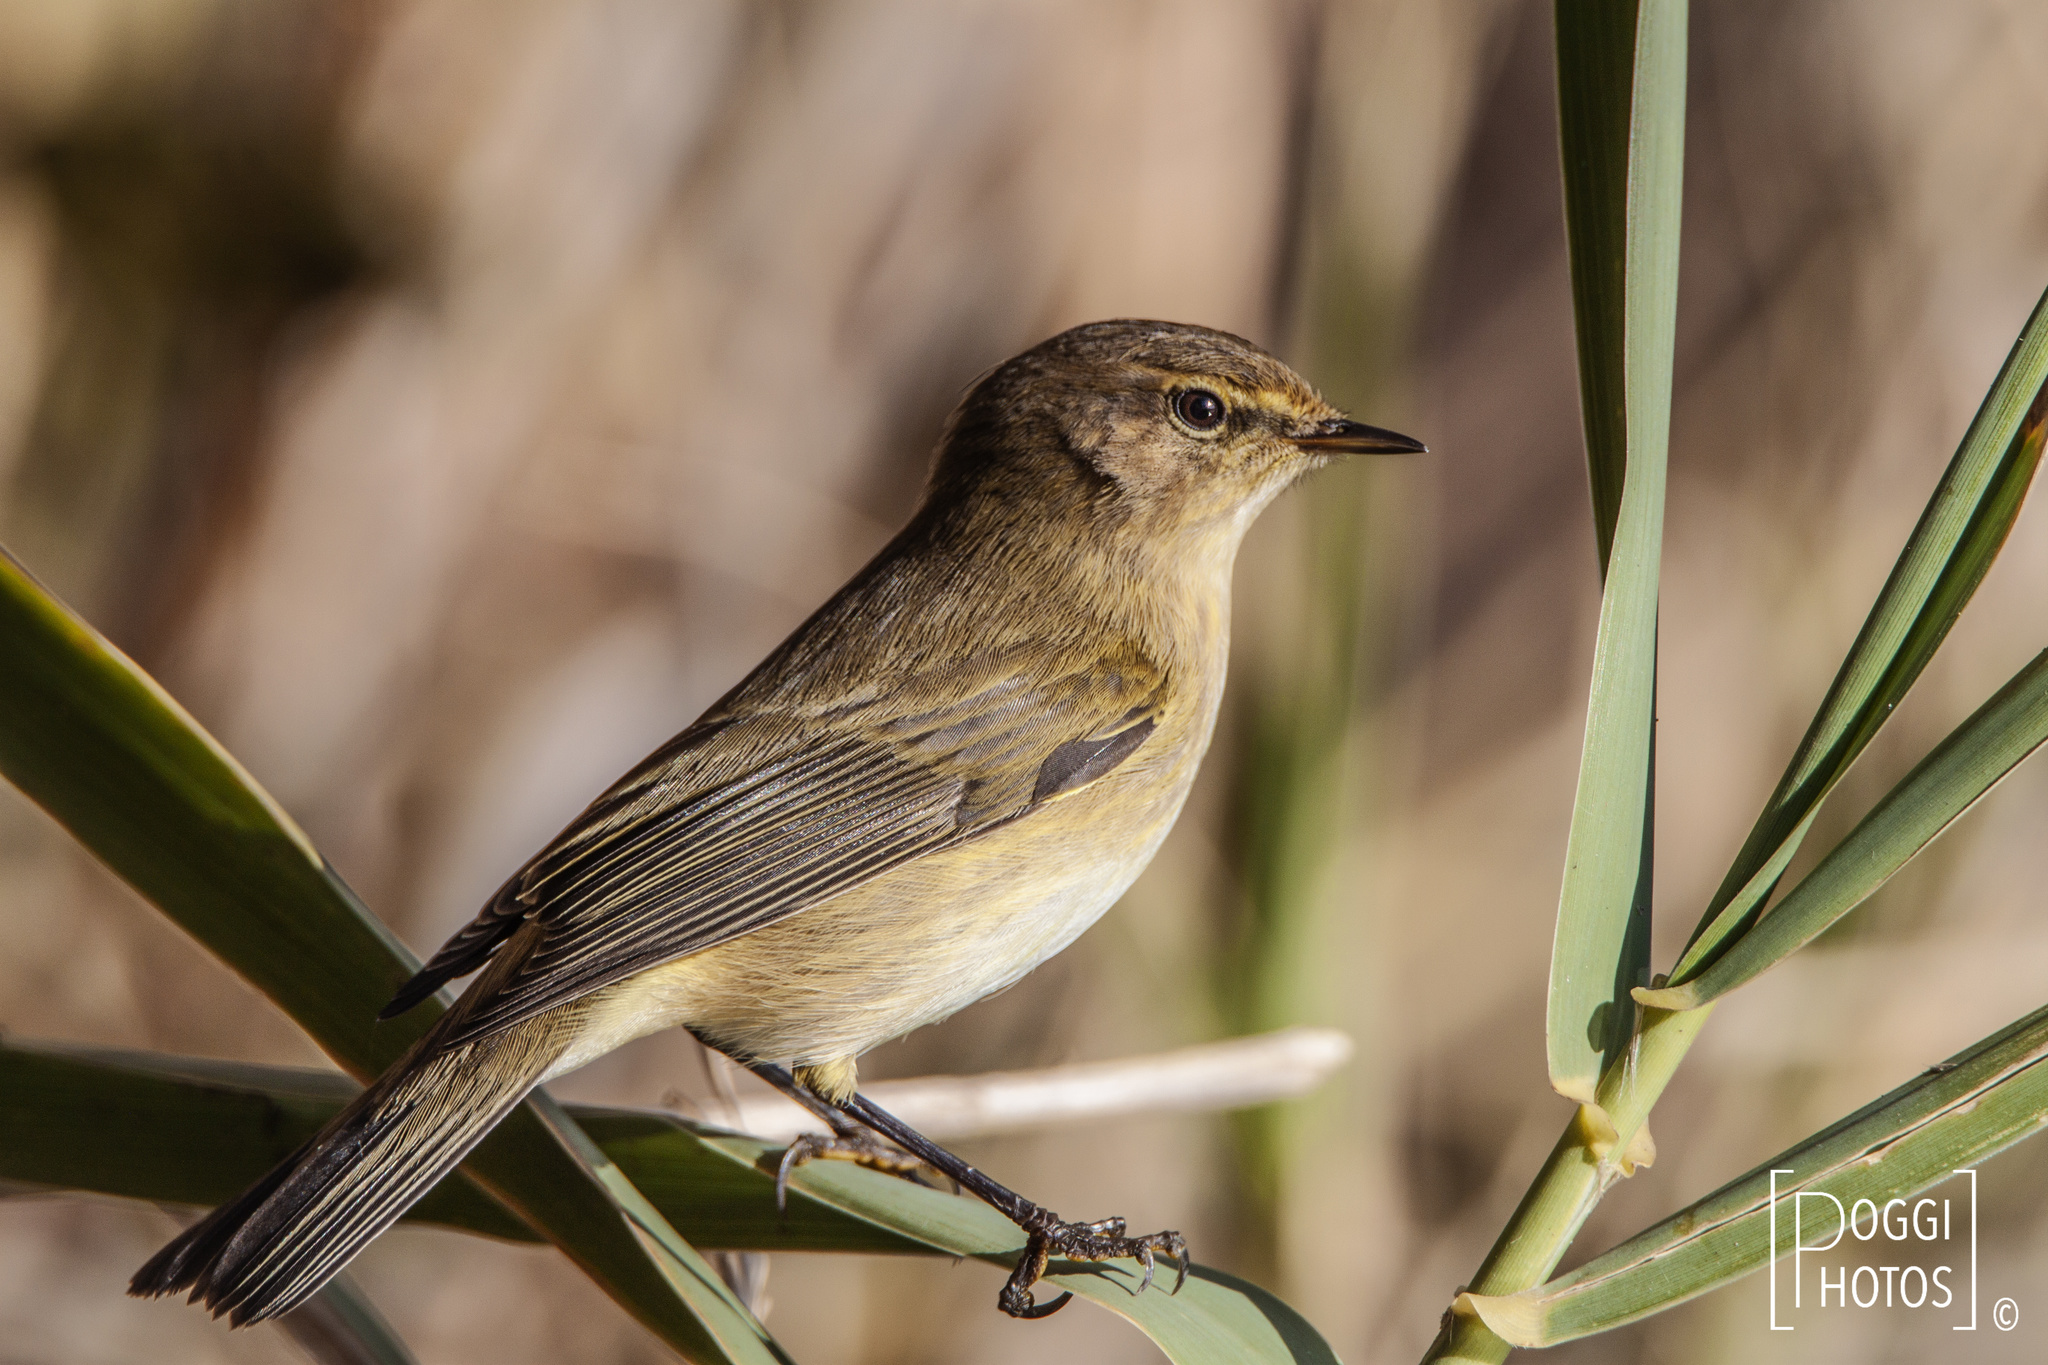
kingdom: Animalia
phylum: Chordata
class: Aves
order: Passeriformes
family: Phylloscopidae
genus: Phylloscopus
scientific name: Phylloscopus collybita
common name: Common chiffchaff
